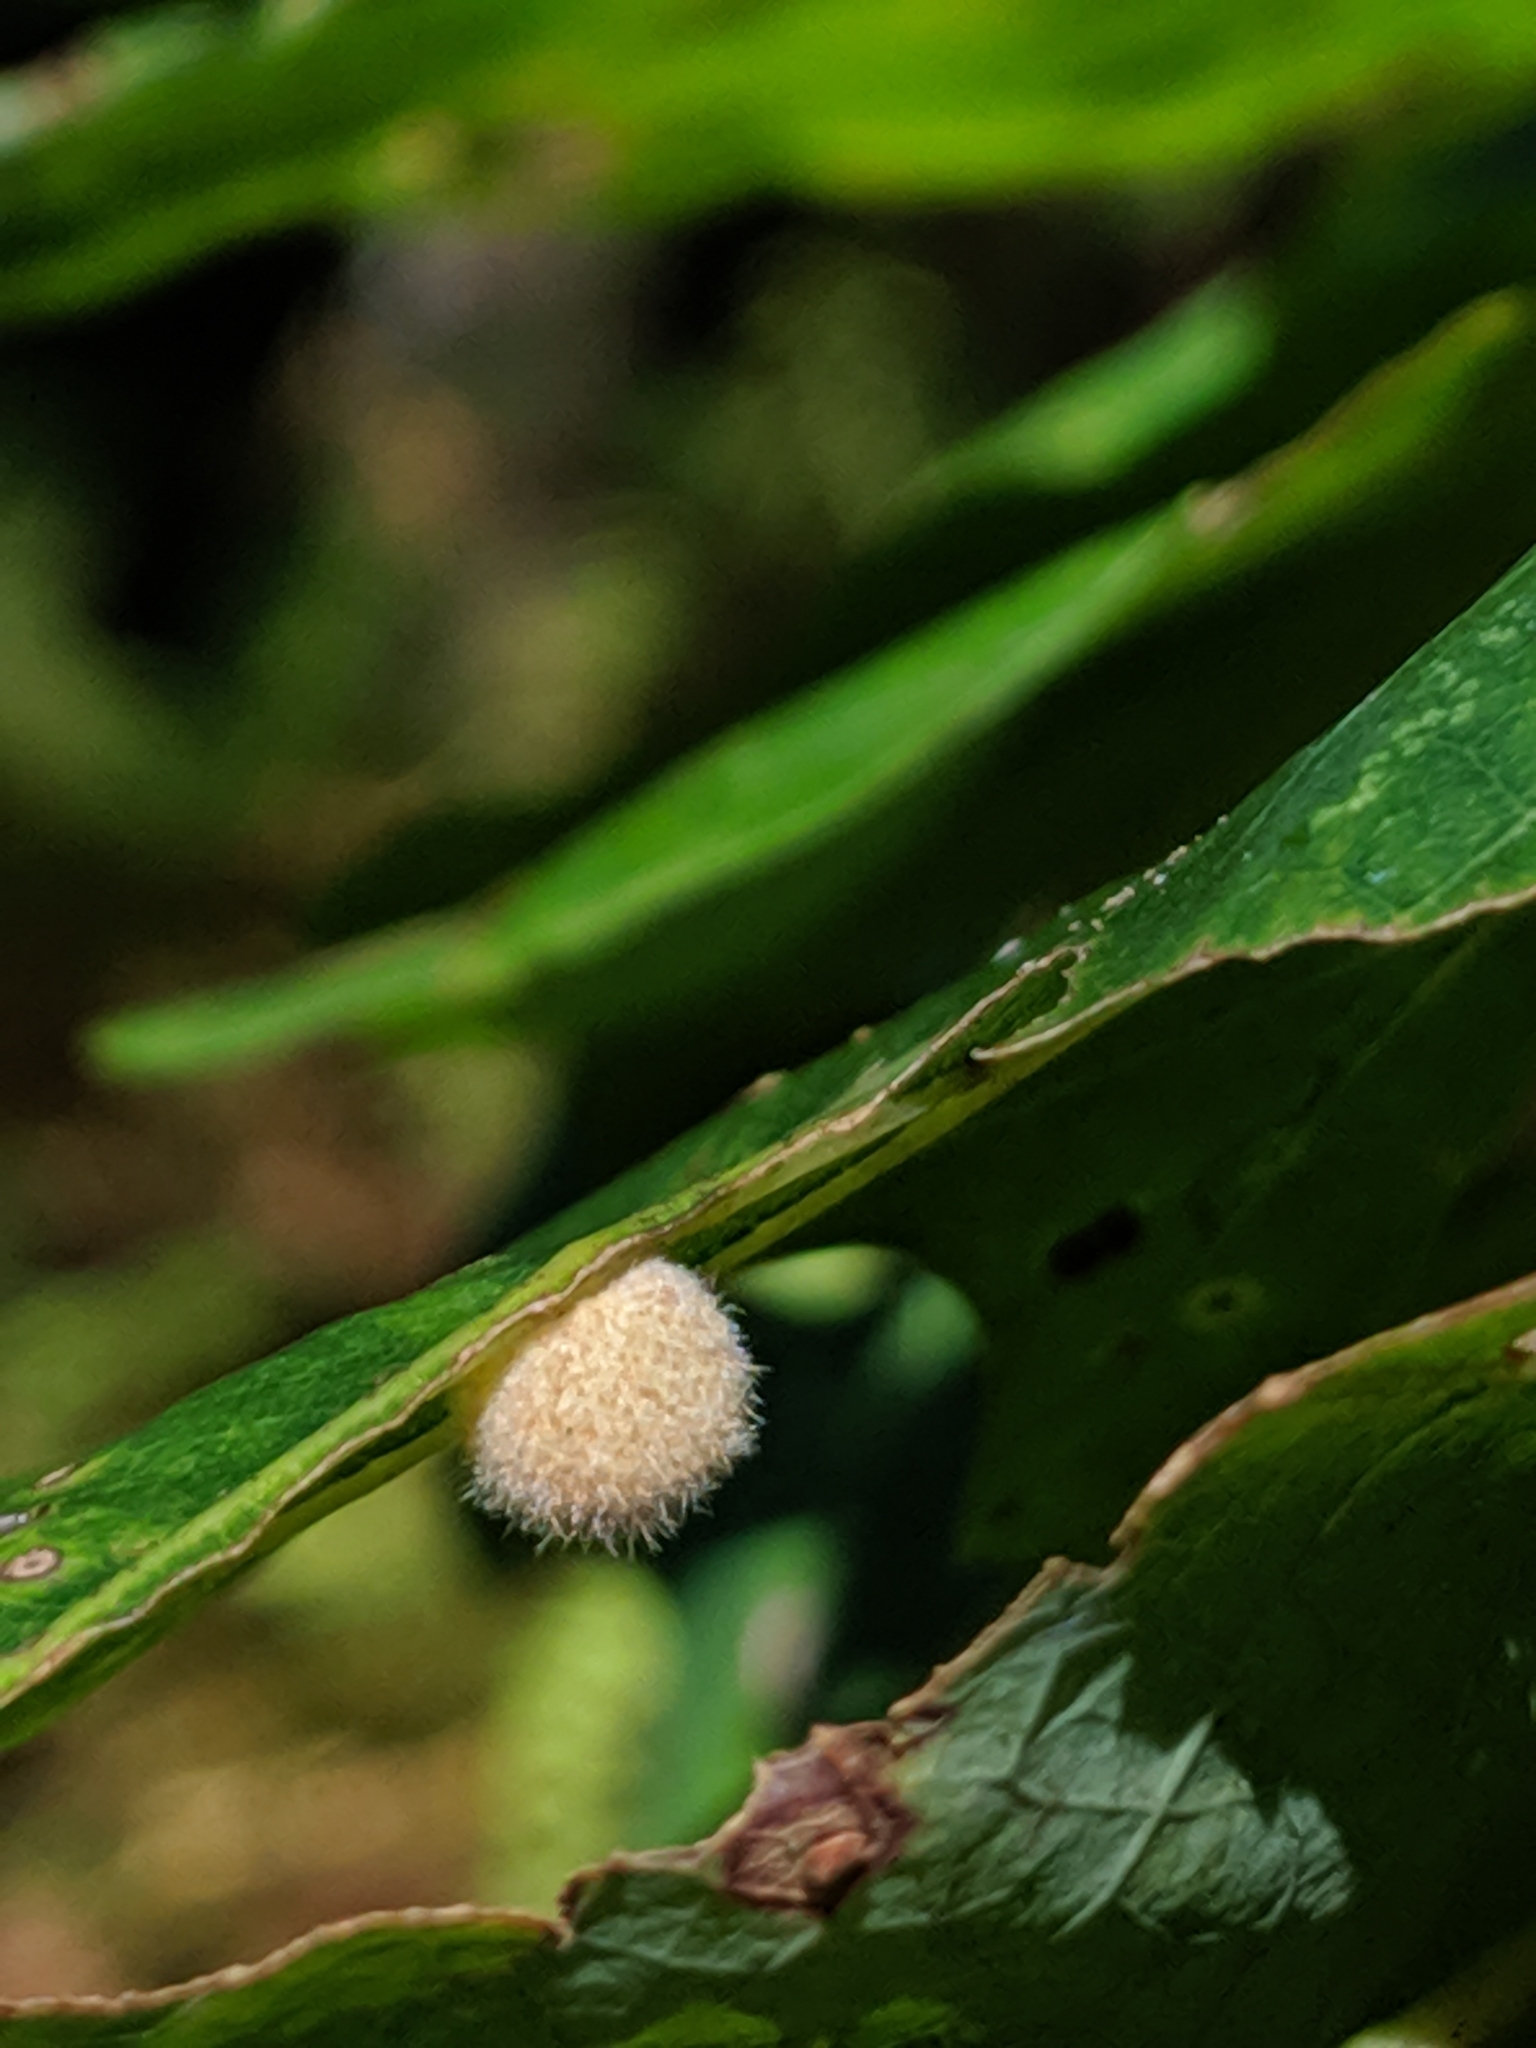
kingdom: Animalia
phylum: Arthropoda
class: Insecta
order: Hymenoptera
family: Cynipidae
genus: Philonix
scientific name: Philonix fulvicollis
